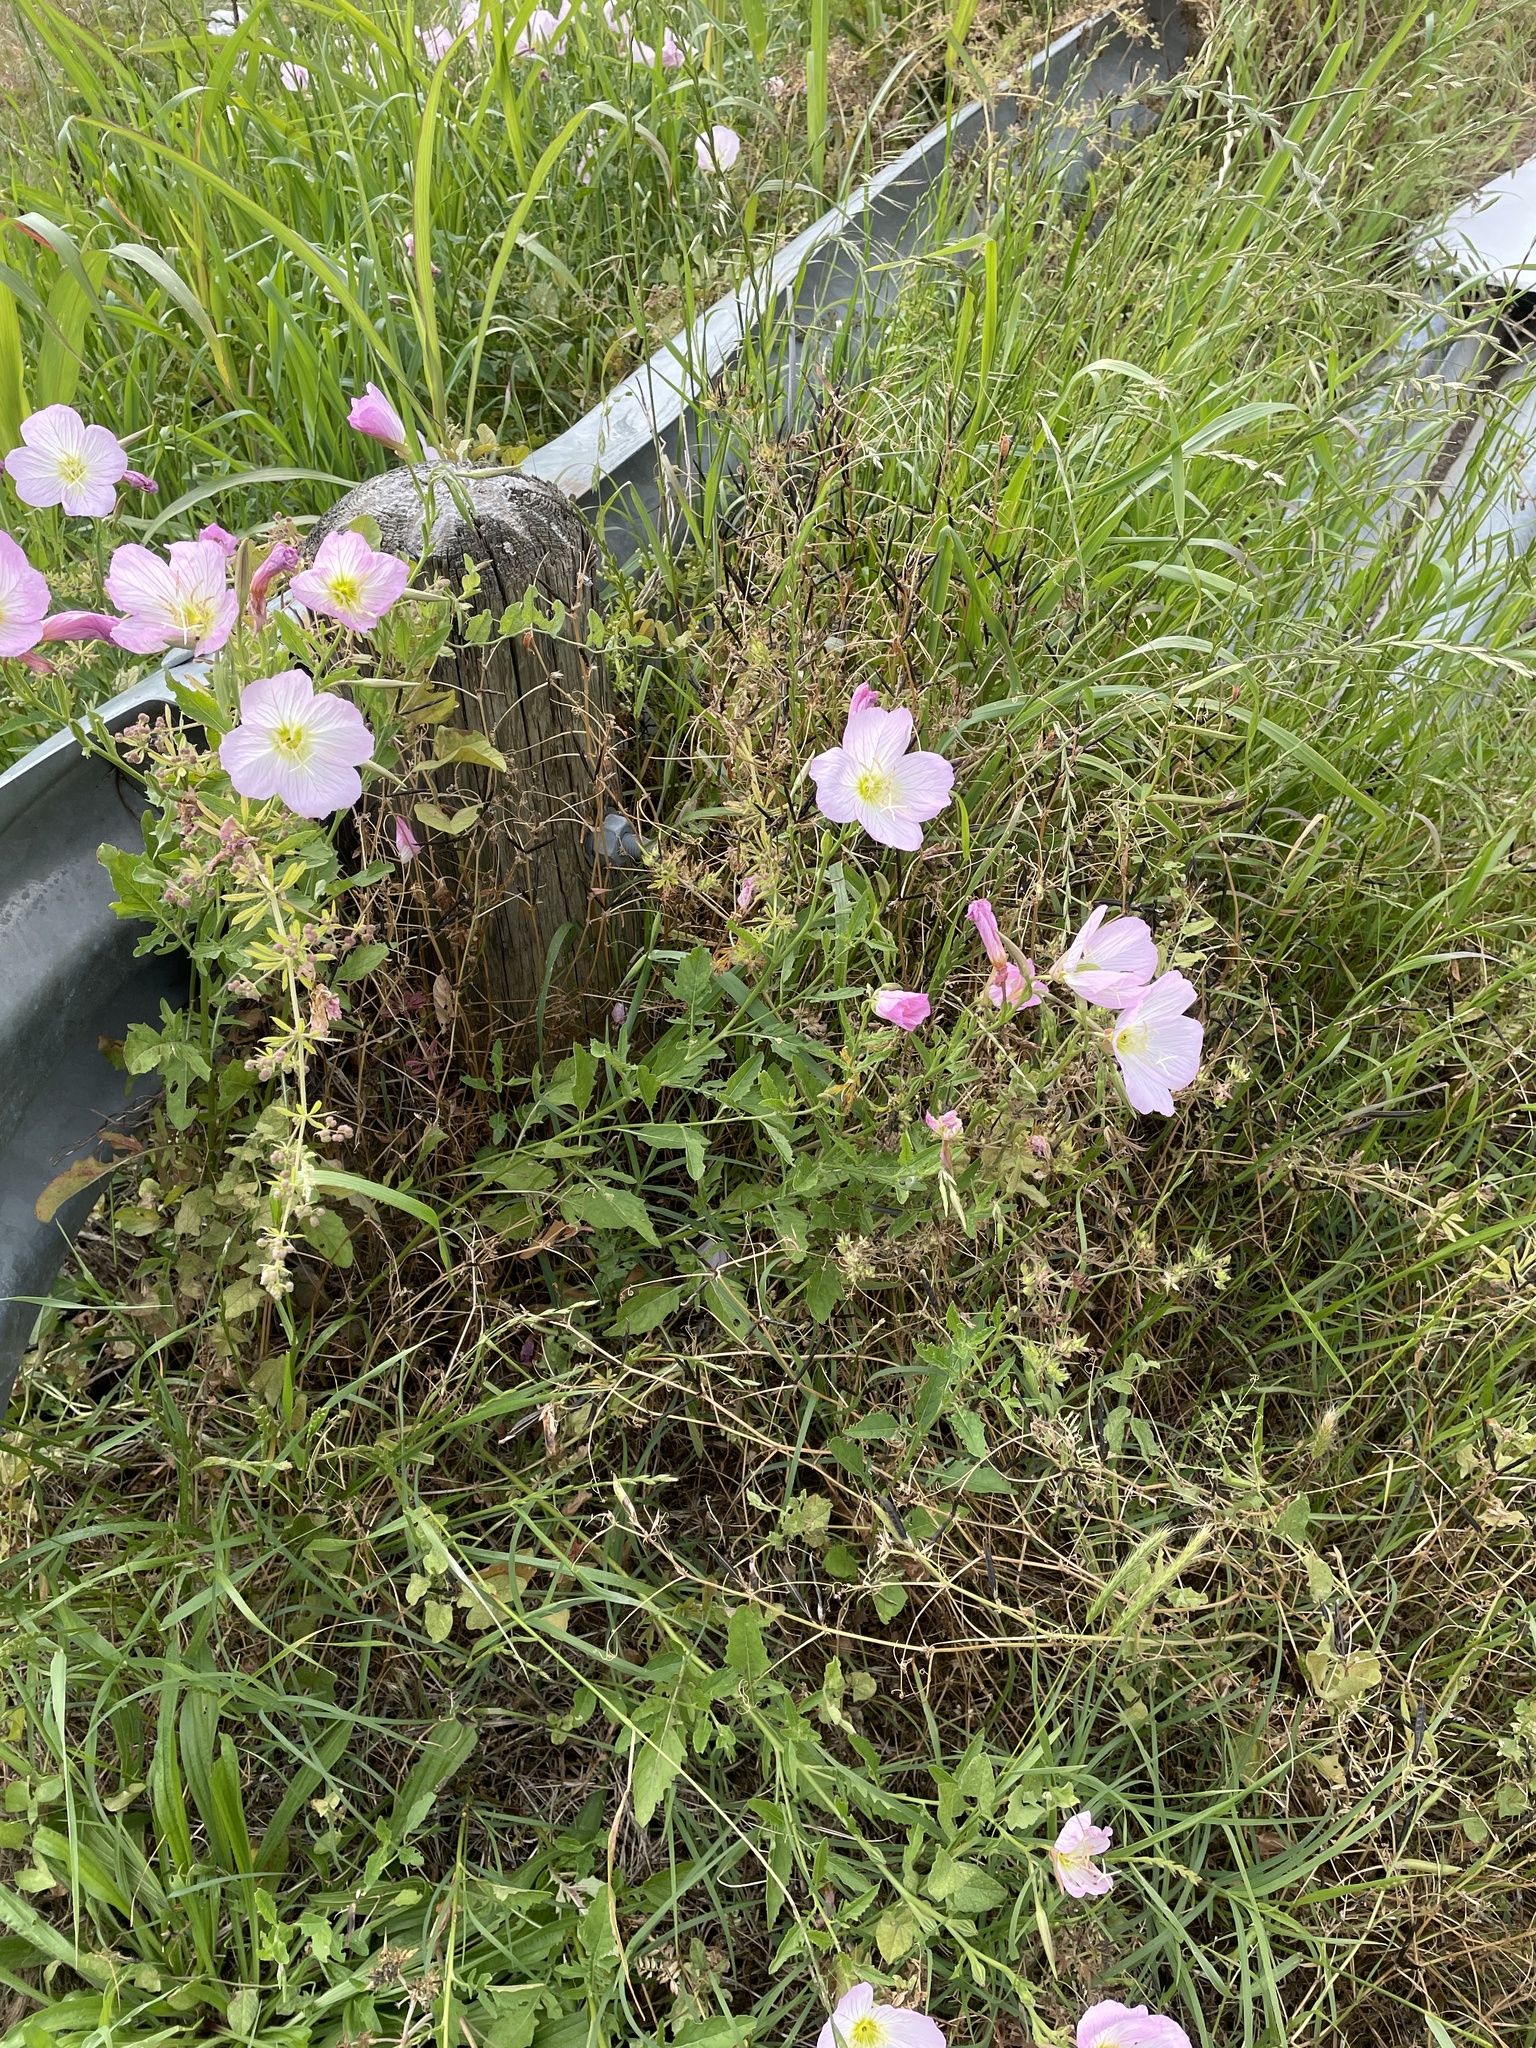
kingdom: Plantae
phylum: Tracheophyta
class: Magnoliopsida
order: Myrtales
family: Onagraceae
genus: Oenothera
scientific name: Oenothera speciosa
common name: White evening-primrose
